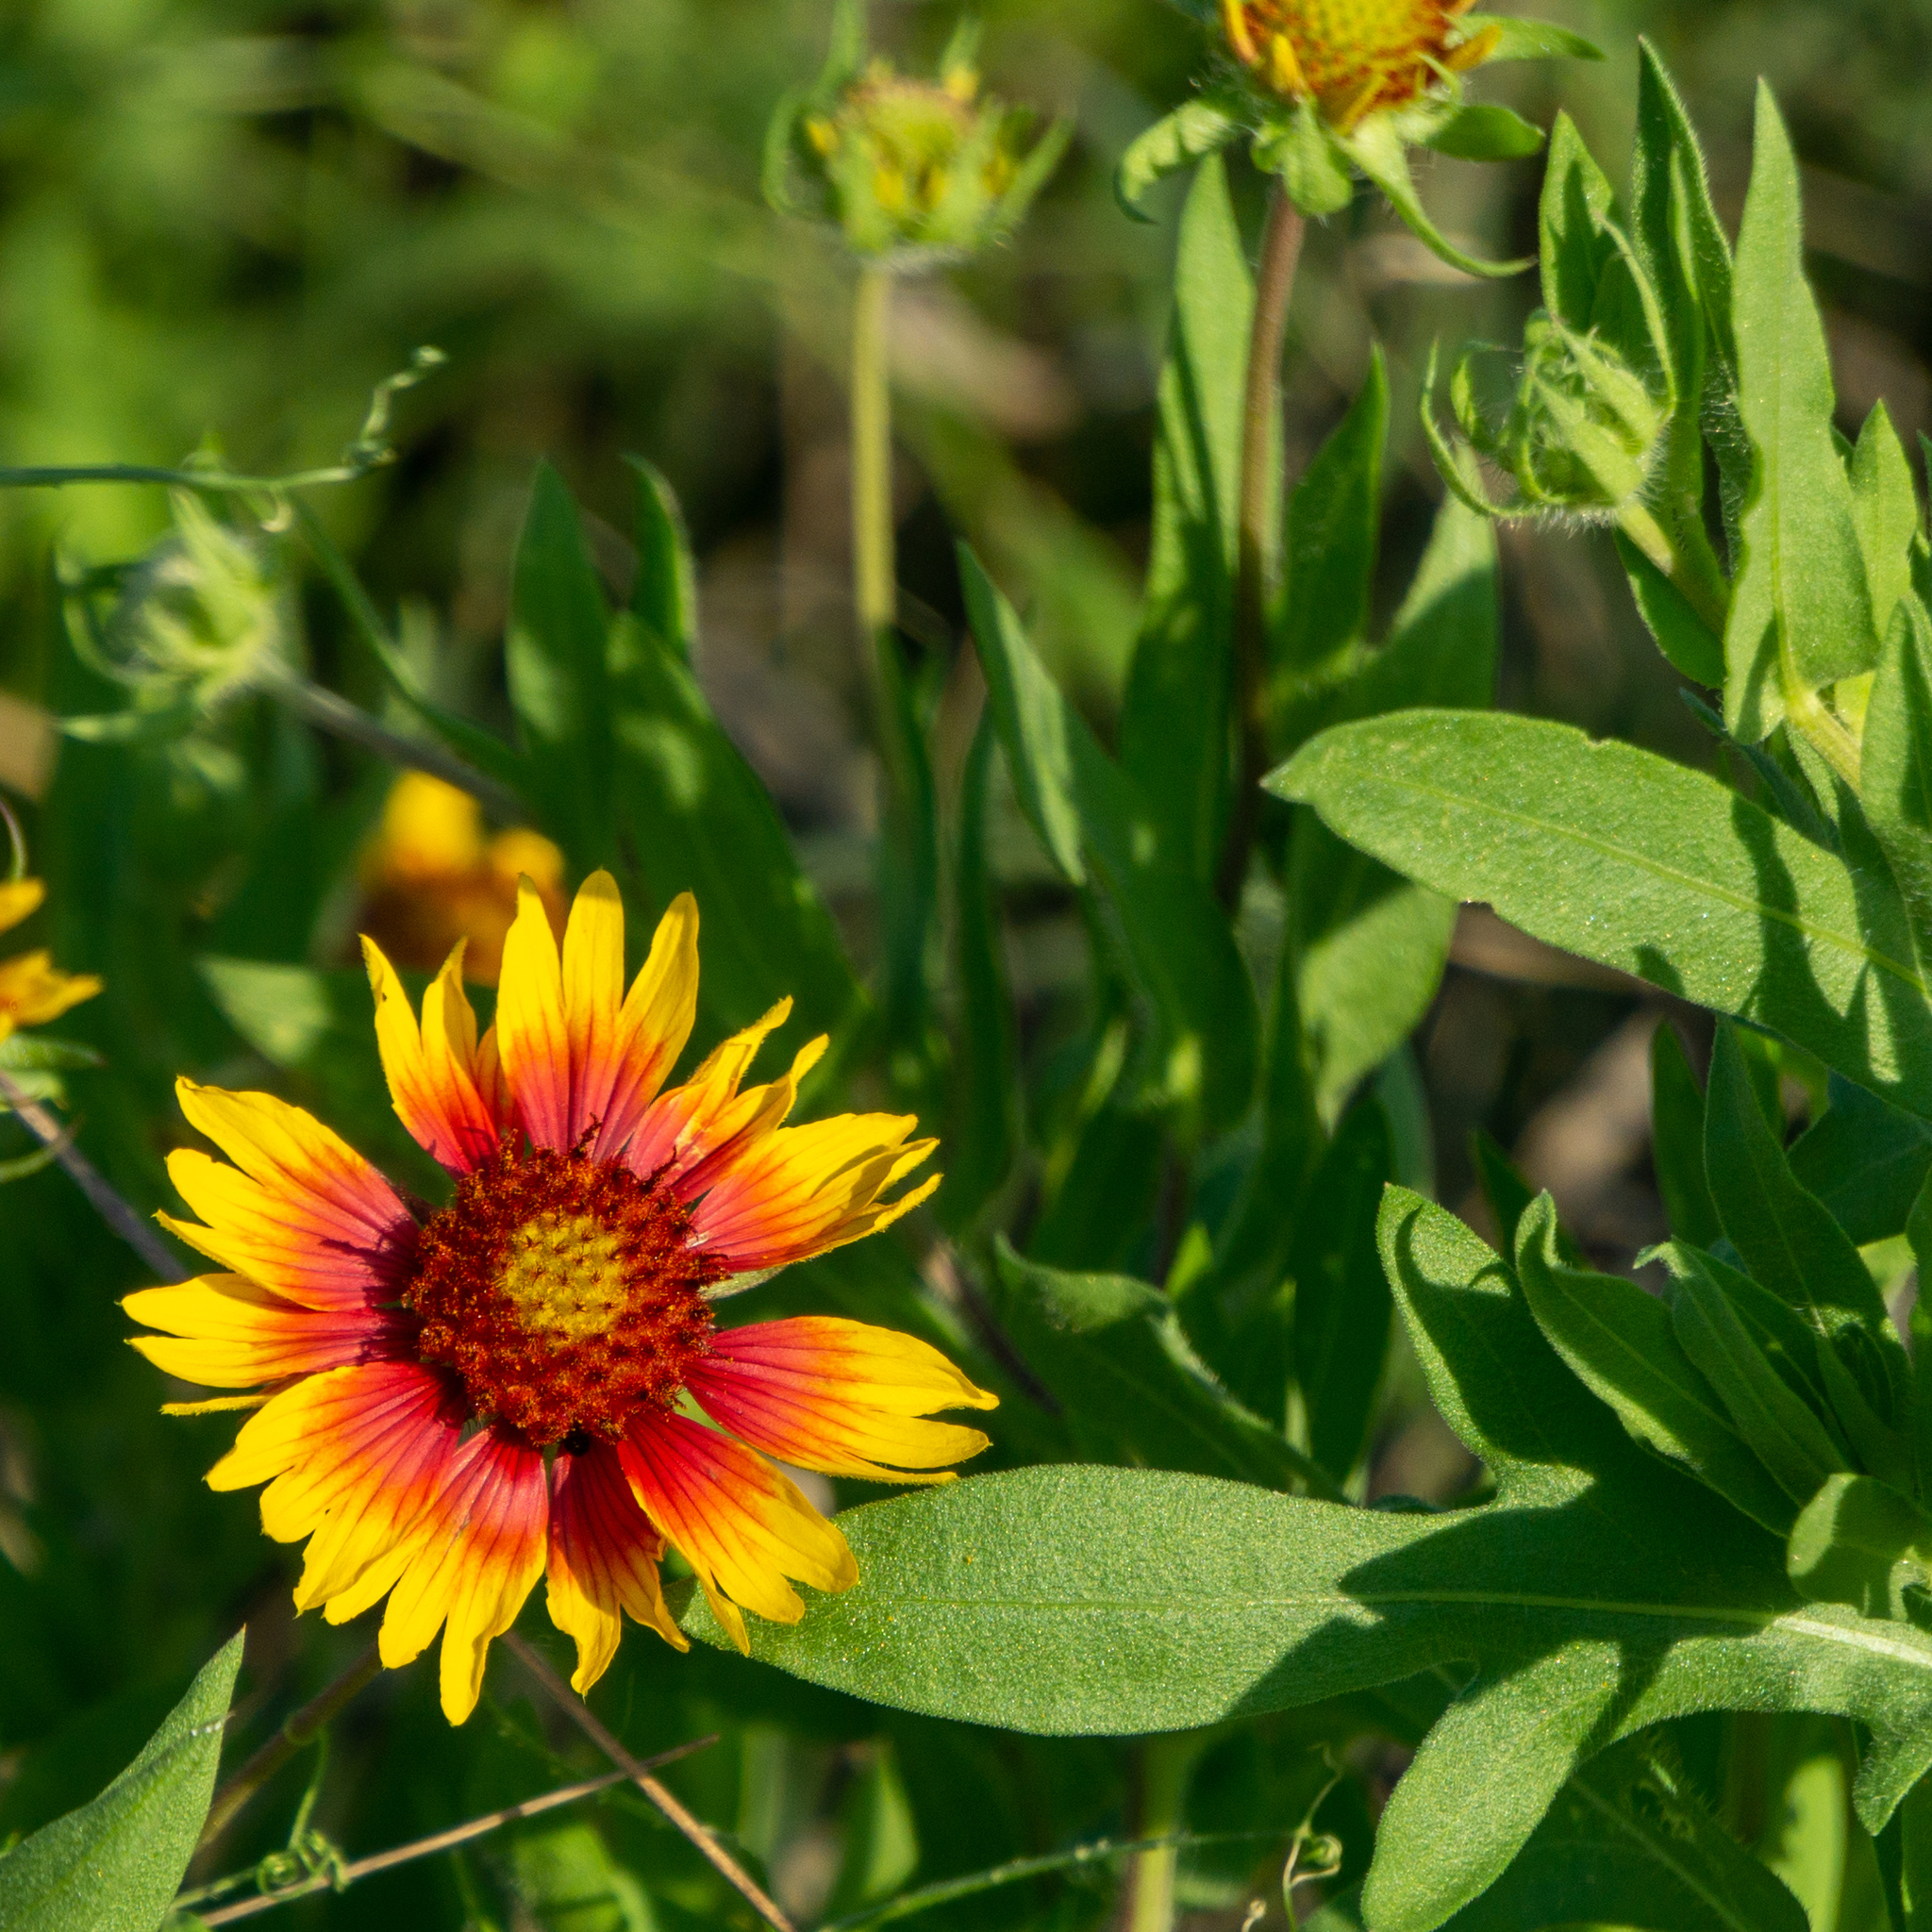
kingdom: Plantae
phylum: Tracheophyta
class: Magnoliopsida
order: Asterales
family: Asteraceae
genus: Gaillardia
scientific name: Gaillardia pulchella
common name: Firewheel
